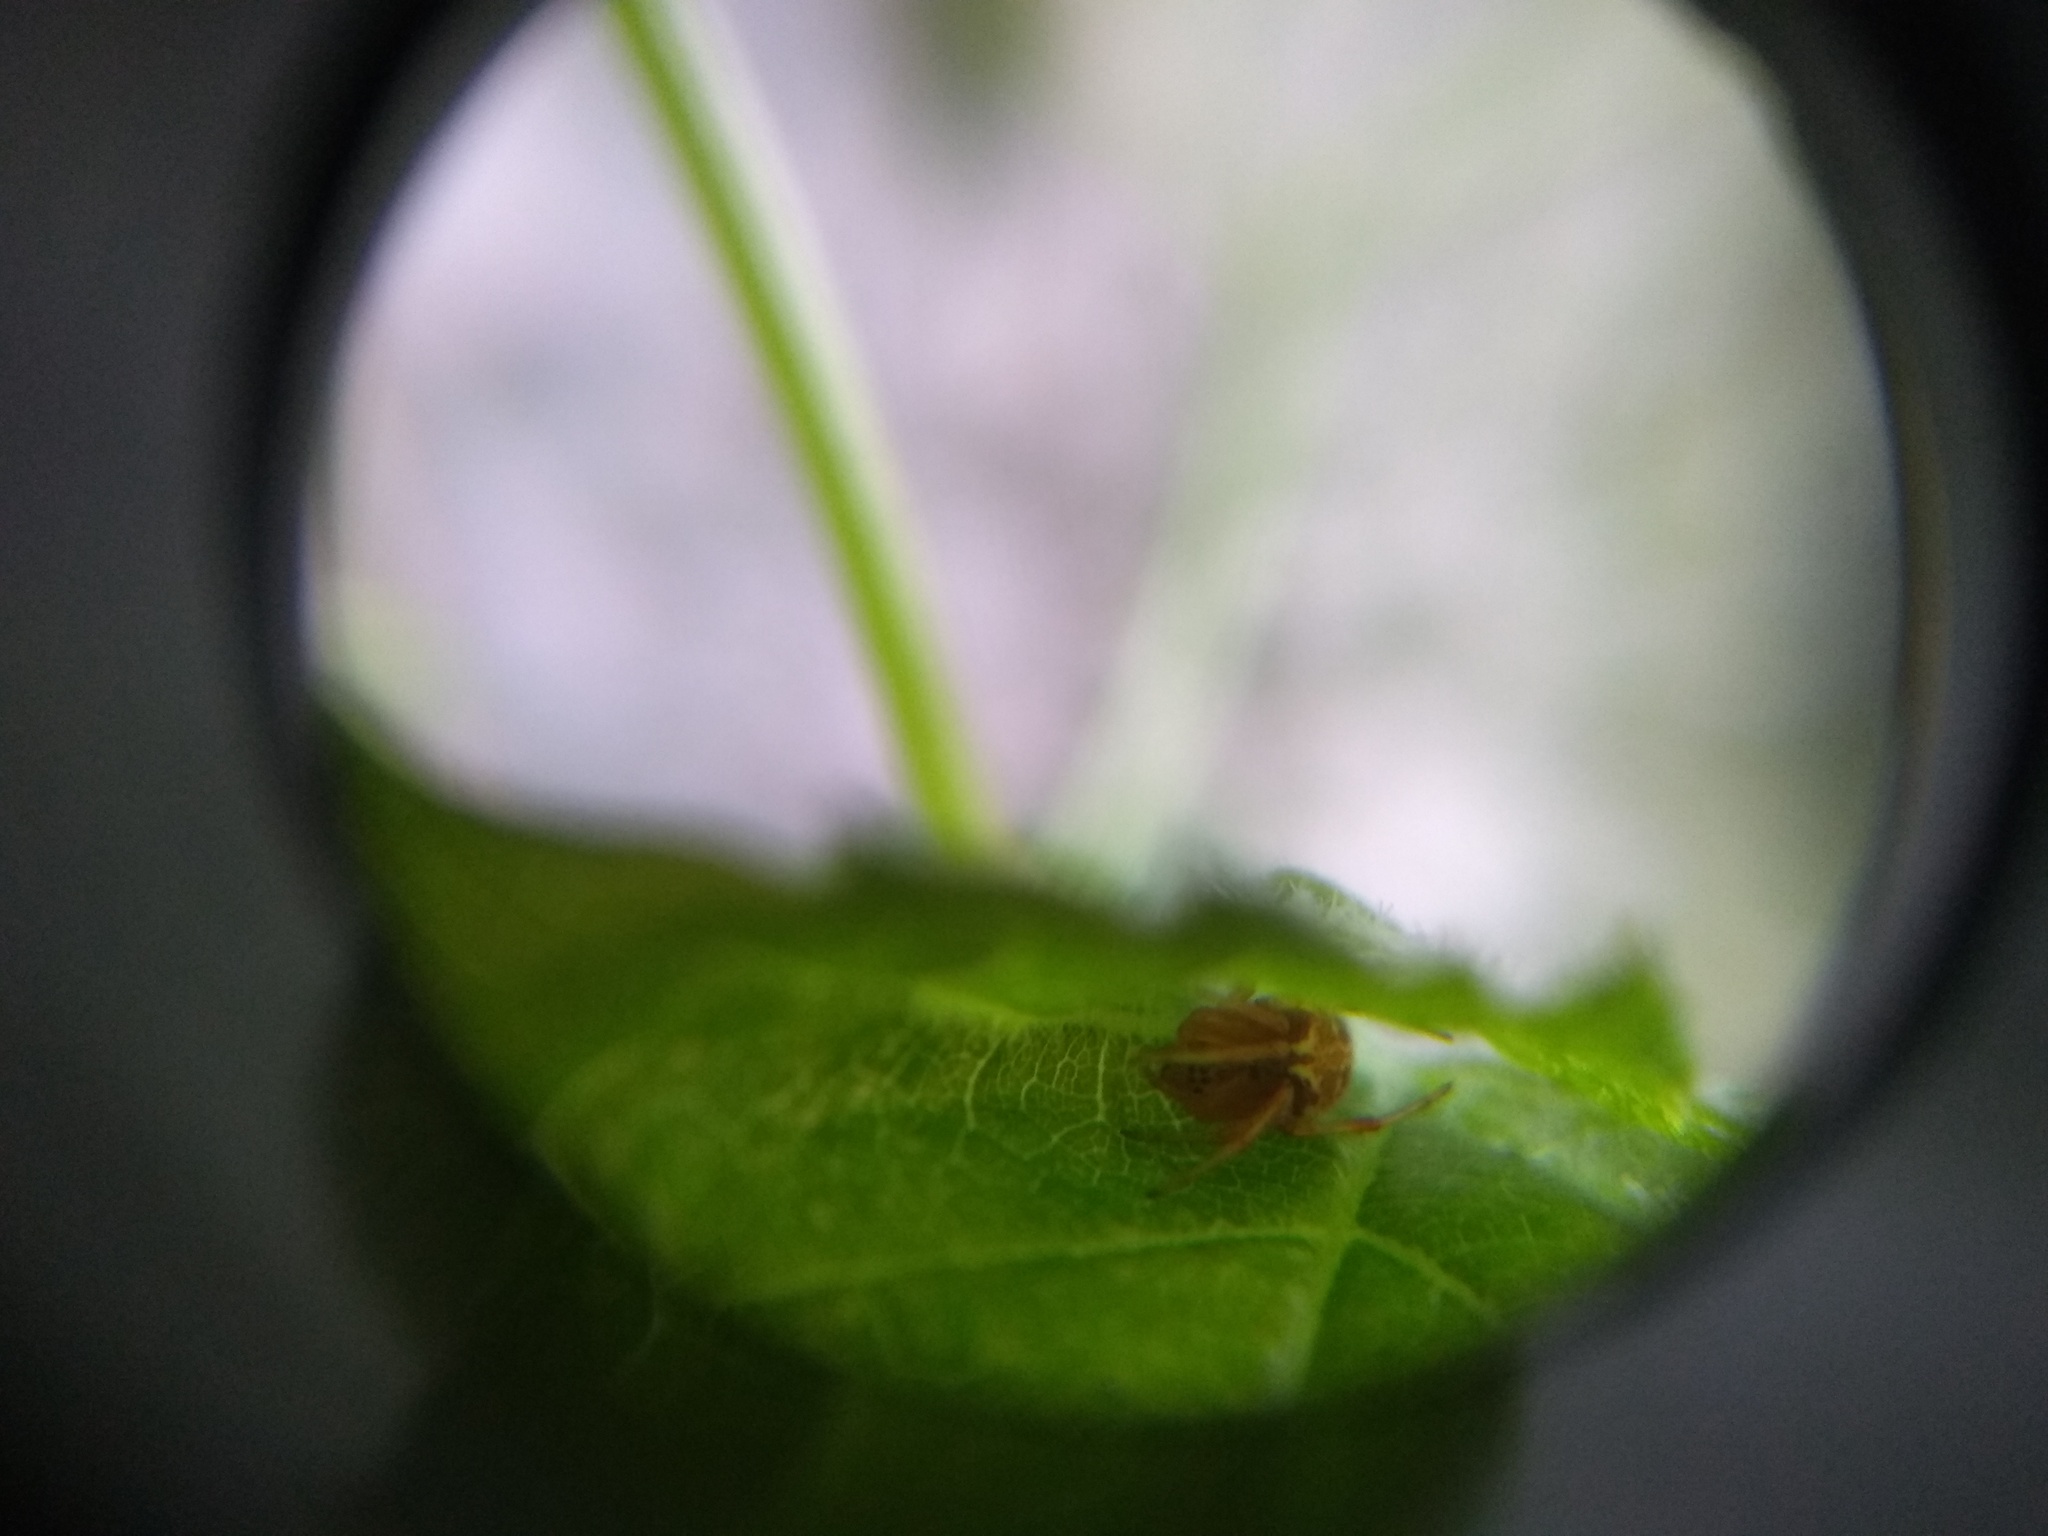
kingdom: Animalia
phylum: Arthropoda
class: Arachnida
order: Araneae
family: Araneidae
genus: Neoscona
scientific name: Neoscona arabesca
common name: Orb weavers
